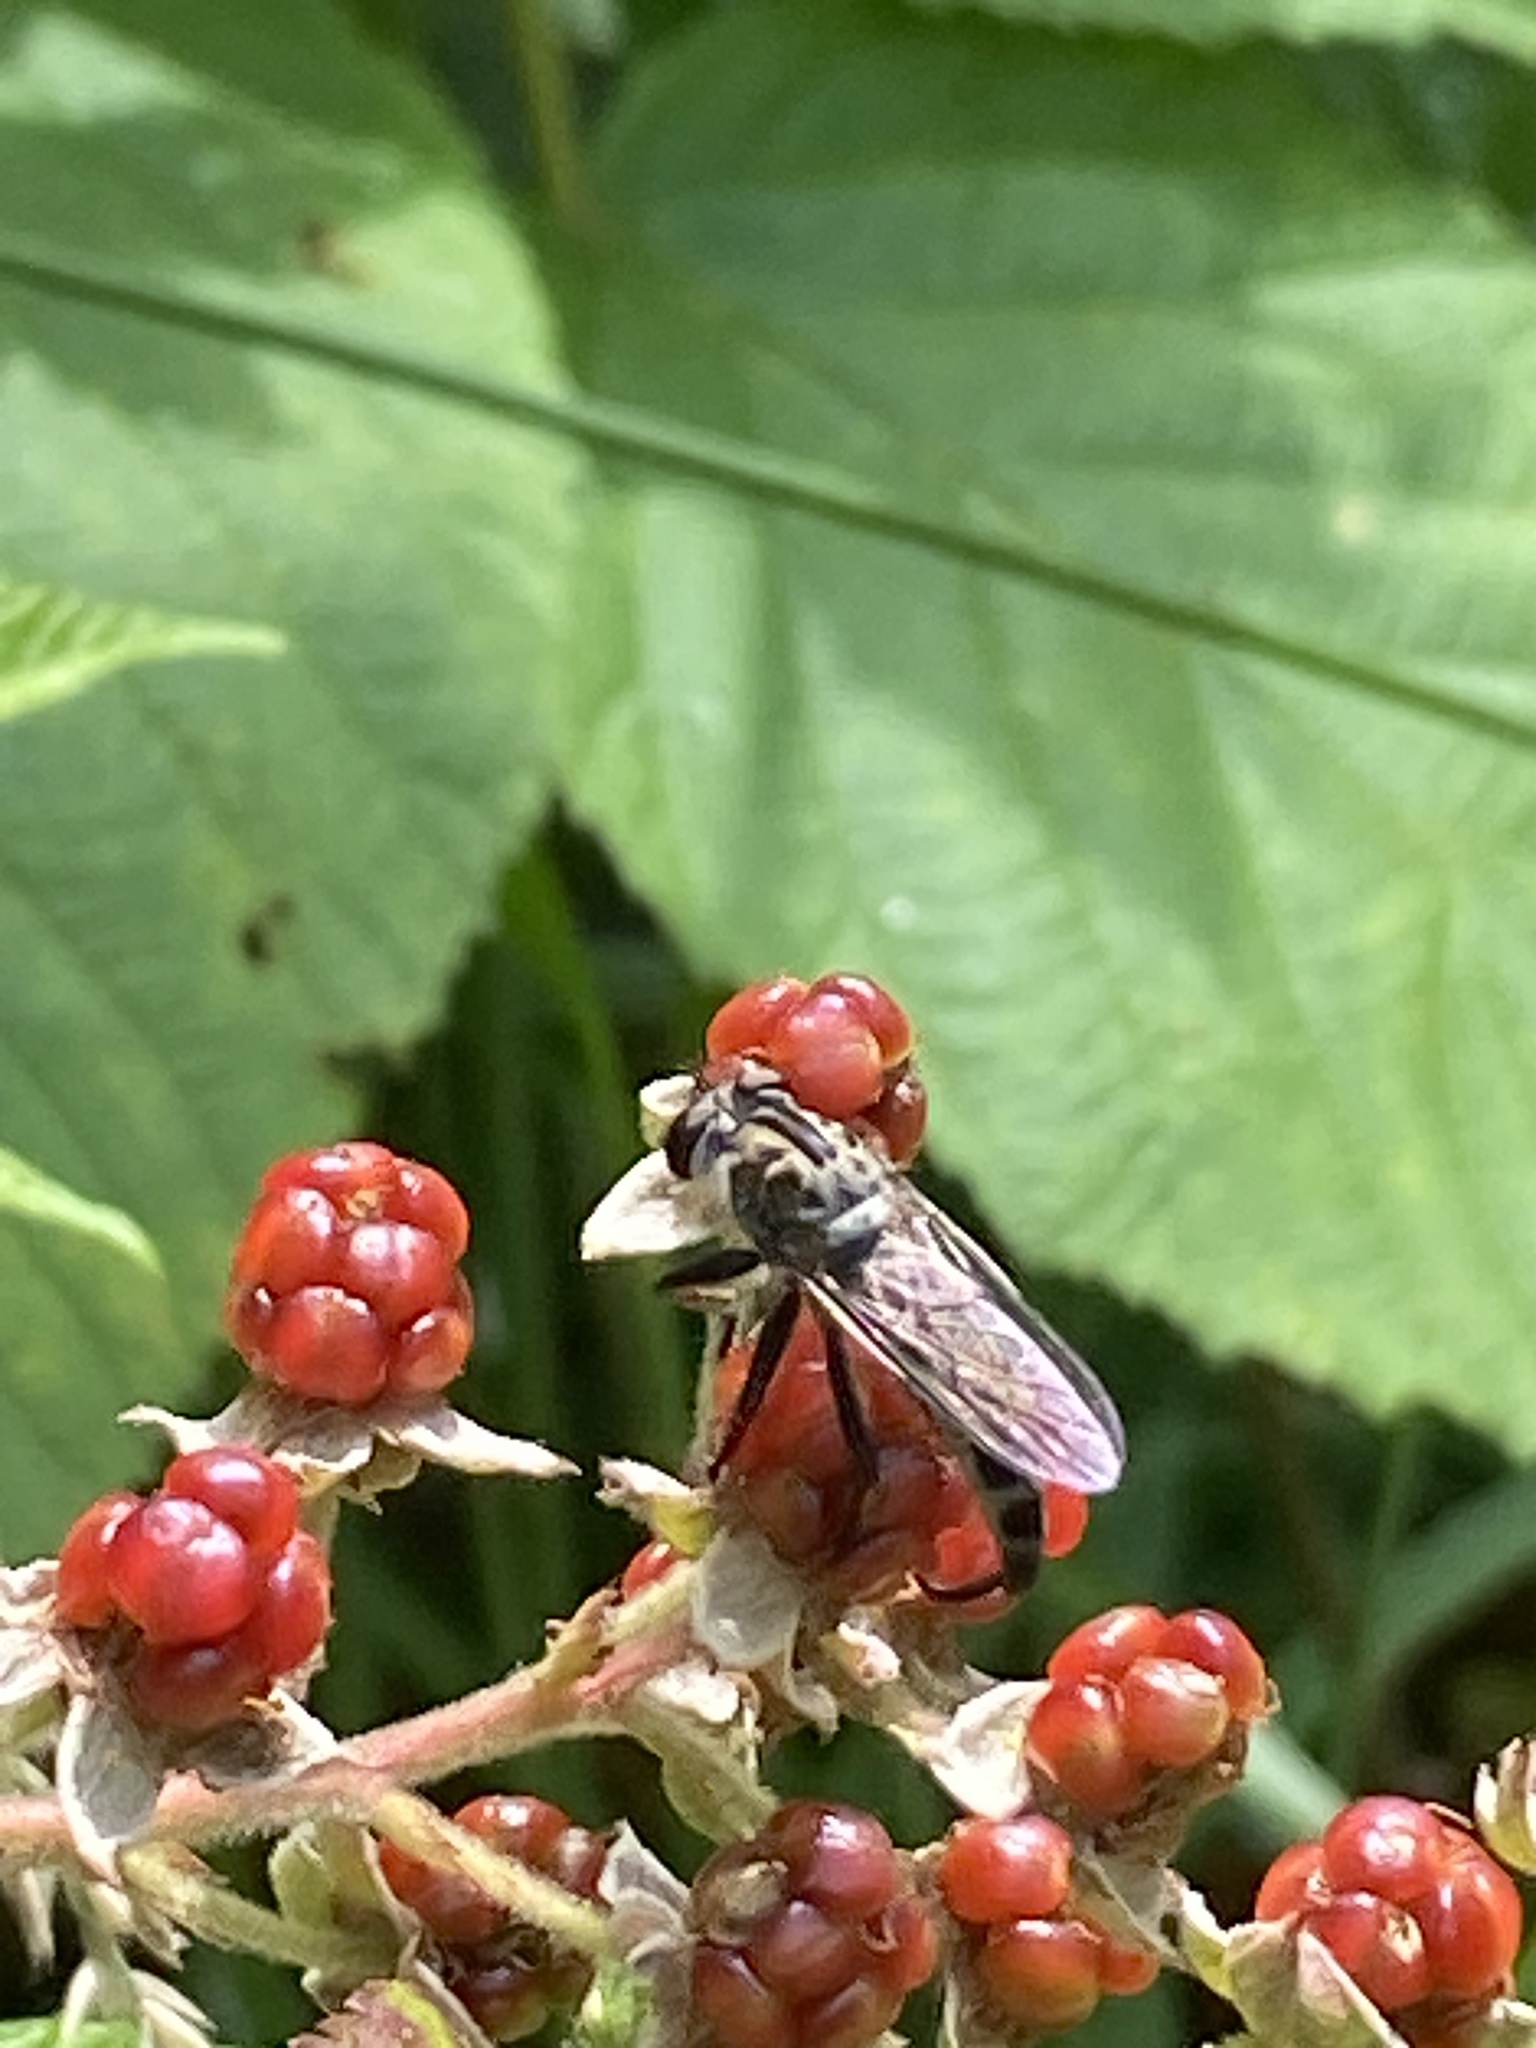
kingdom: Animalia
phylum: Arthropoda
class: Insecta
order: Diptera
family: Asilidae
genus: Efferia
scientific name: Efferia aestuans
